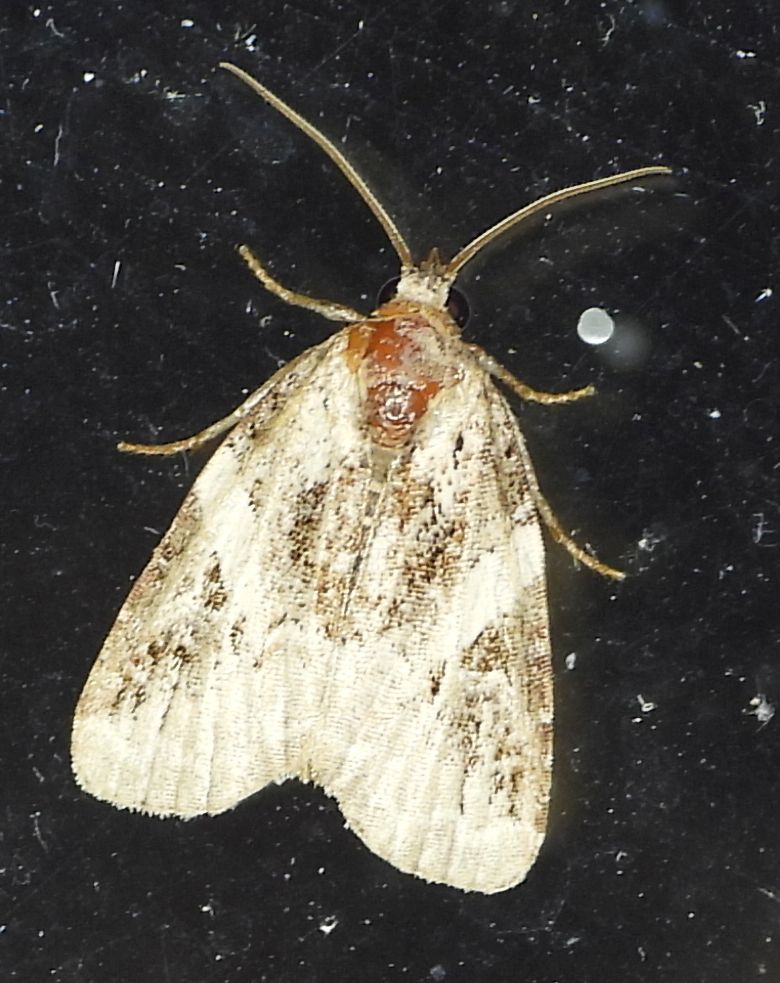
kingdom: Animalia
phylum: Arthropoda
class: Insecta
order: Lepidoptera
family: Noctuidae
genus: Pseudeustrotia
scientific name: Pseudeustrotia carneola
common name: Pink-barred lithacodia moth
